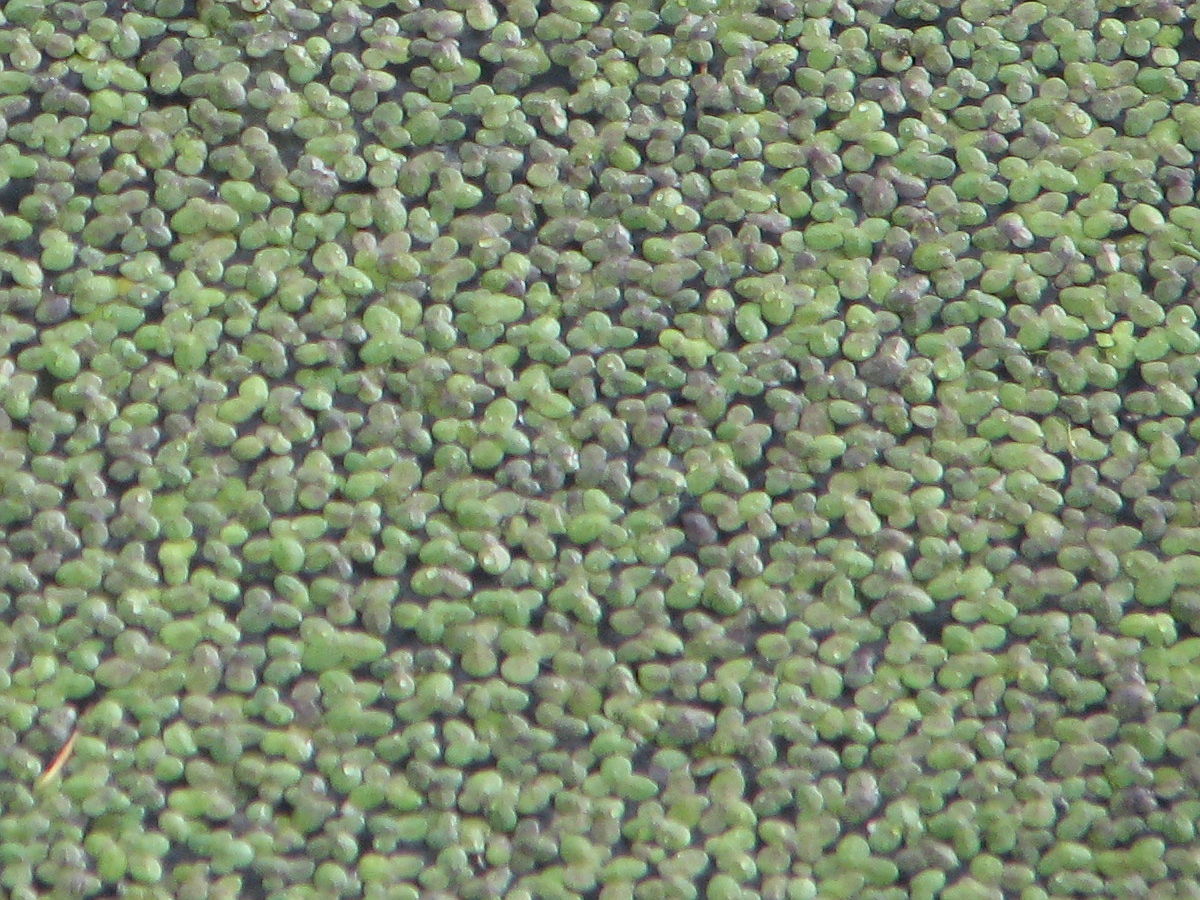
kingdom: Plantae
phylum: Tracheophyta
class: Liliopsida
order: Alismatales
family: Araceae
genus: Lemna
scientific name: Lemna minor
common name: Common duckweed
